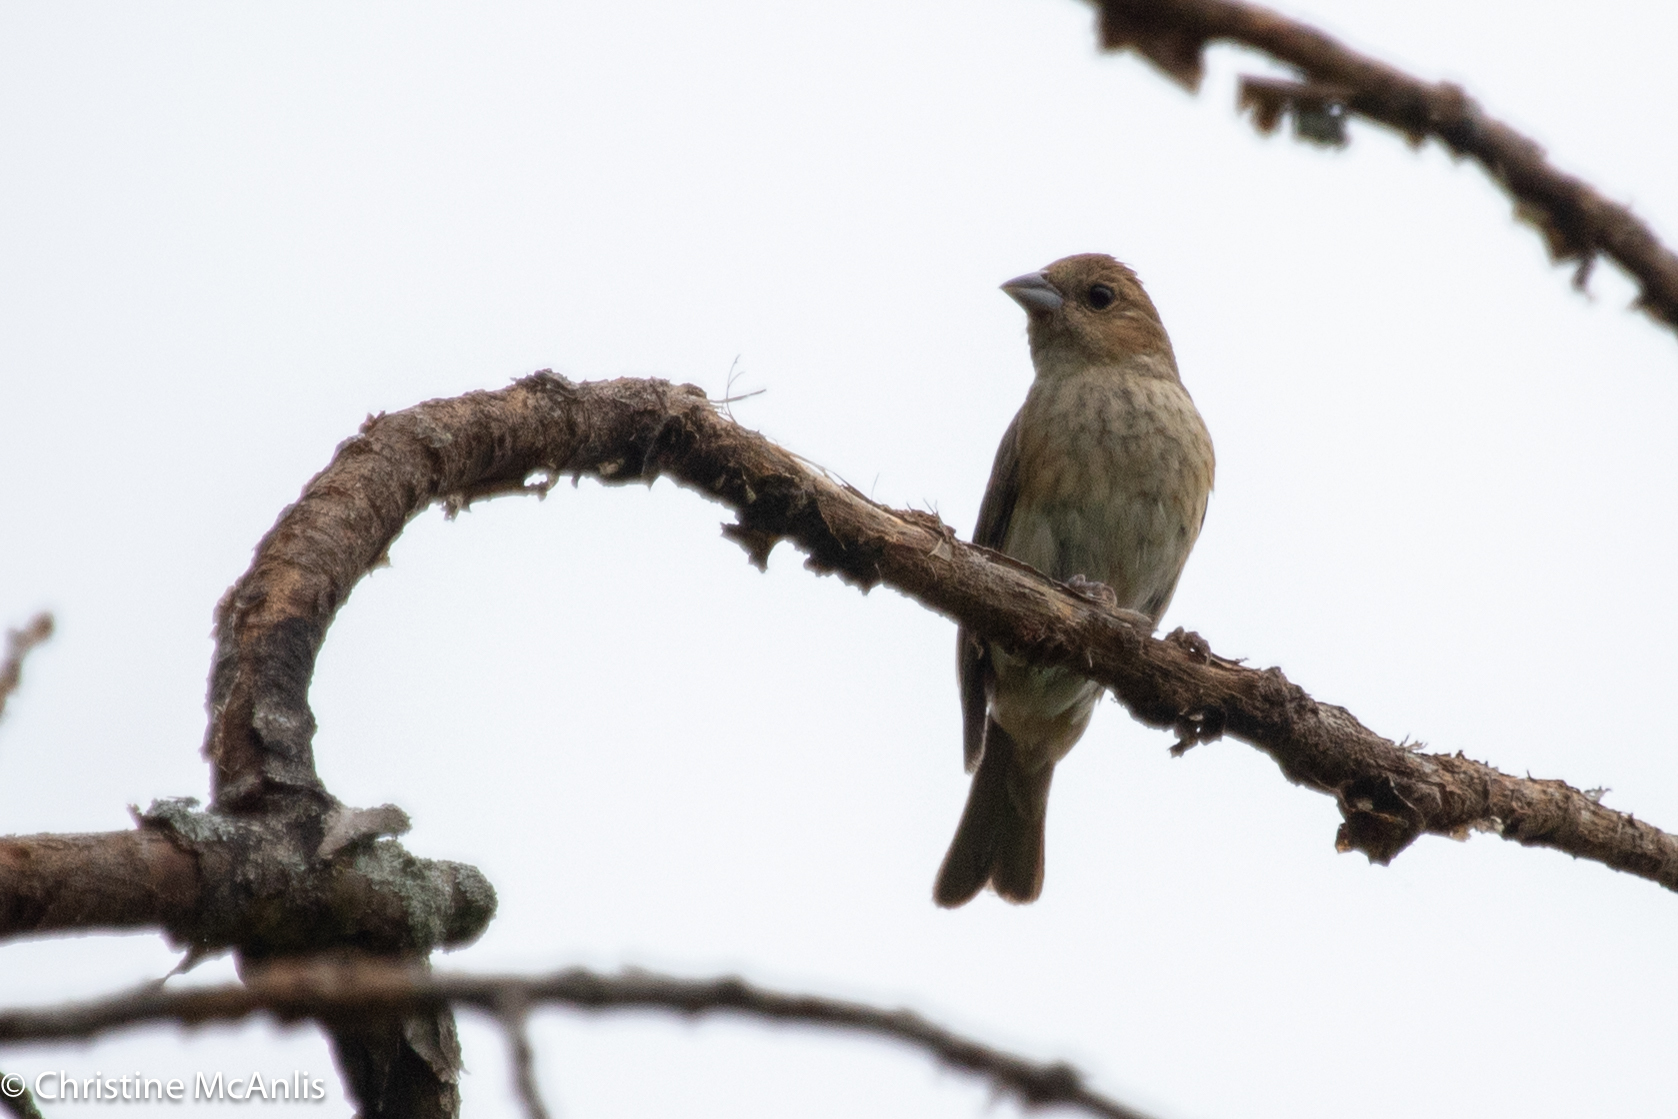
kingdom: Animalia
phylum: Chordata
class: Aves
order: Passeriformes
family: Cardinalidae
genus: Passerina
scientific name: Passerina cyanea
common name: Indigo bunting
